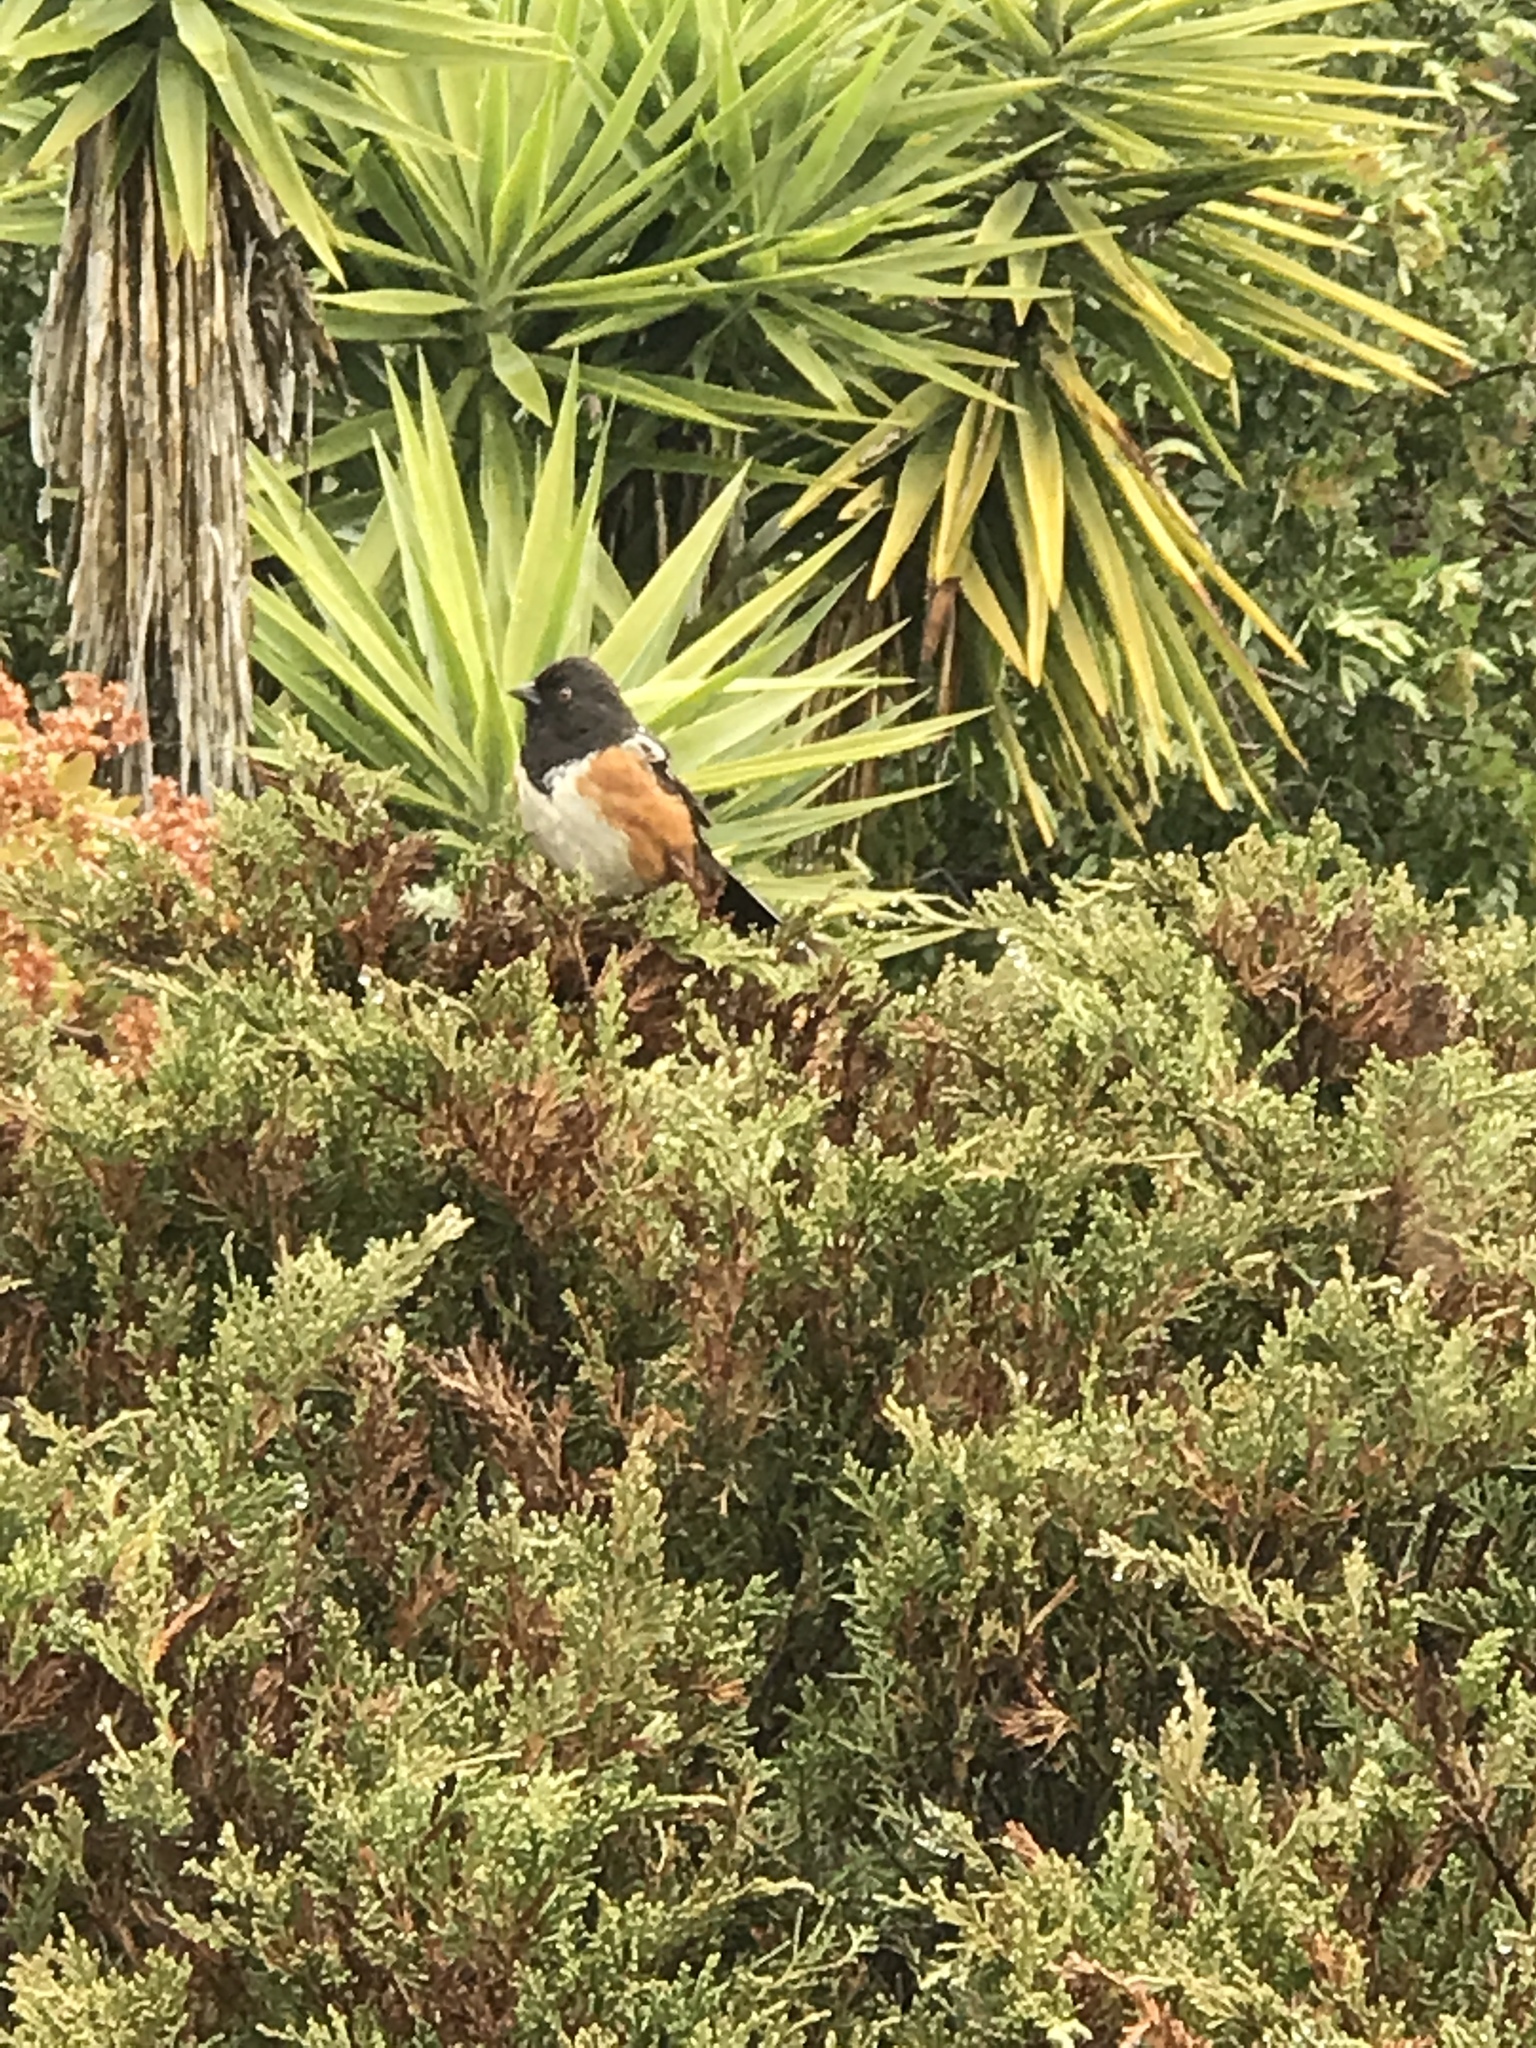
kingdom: Animalia
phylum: Chordata
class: Aves
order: Passeriformes
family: Passerellidae
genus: Pipilo
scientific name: Pipilo maculatus
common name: Spotted towhee
